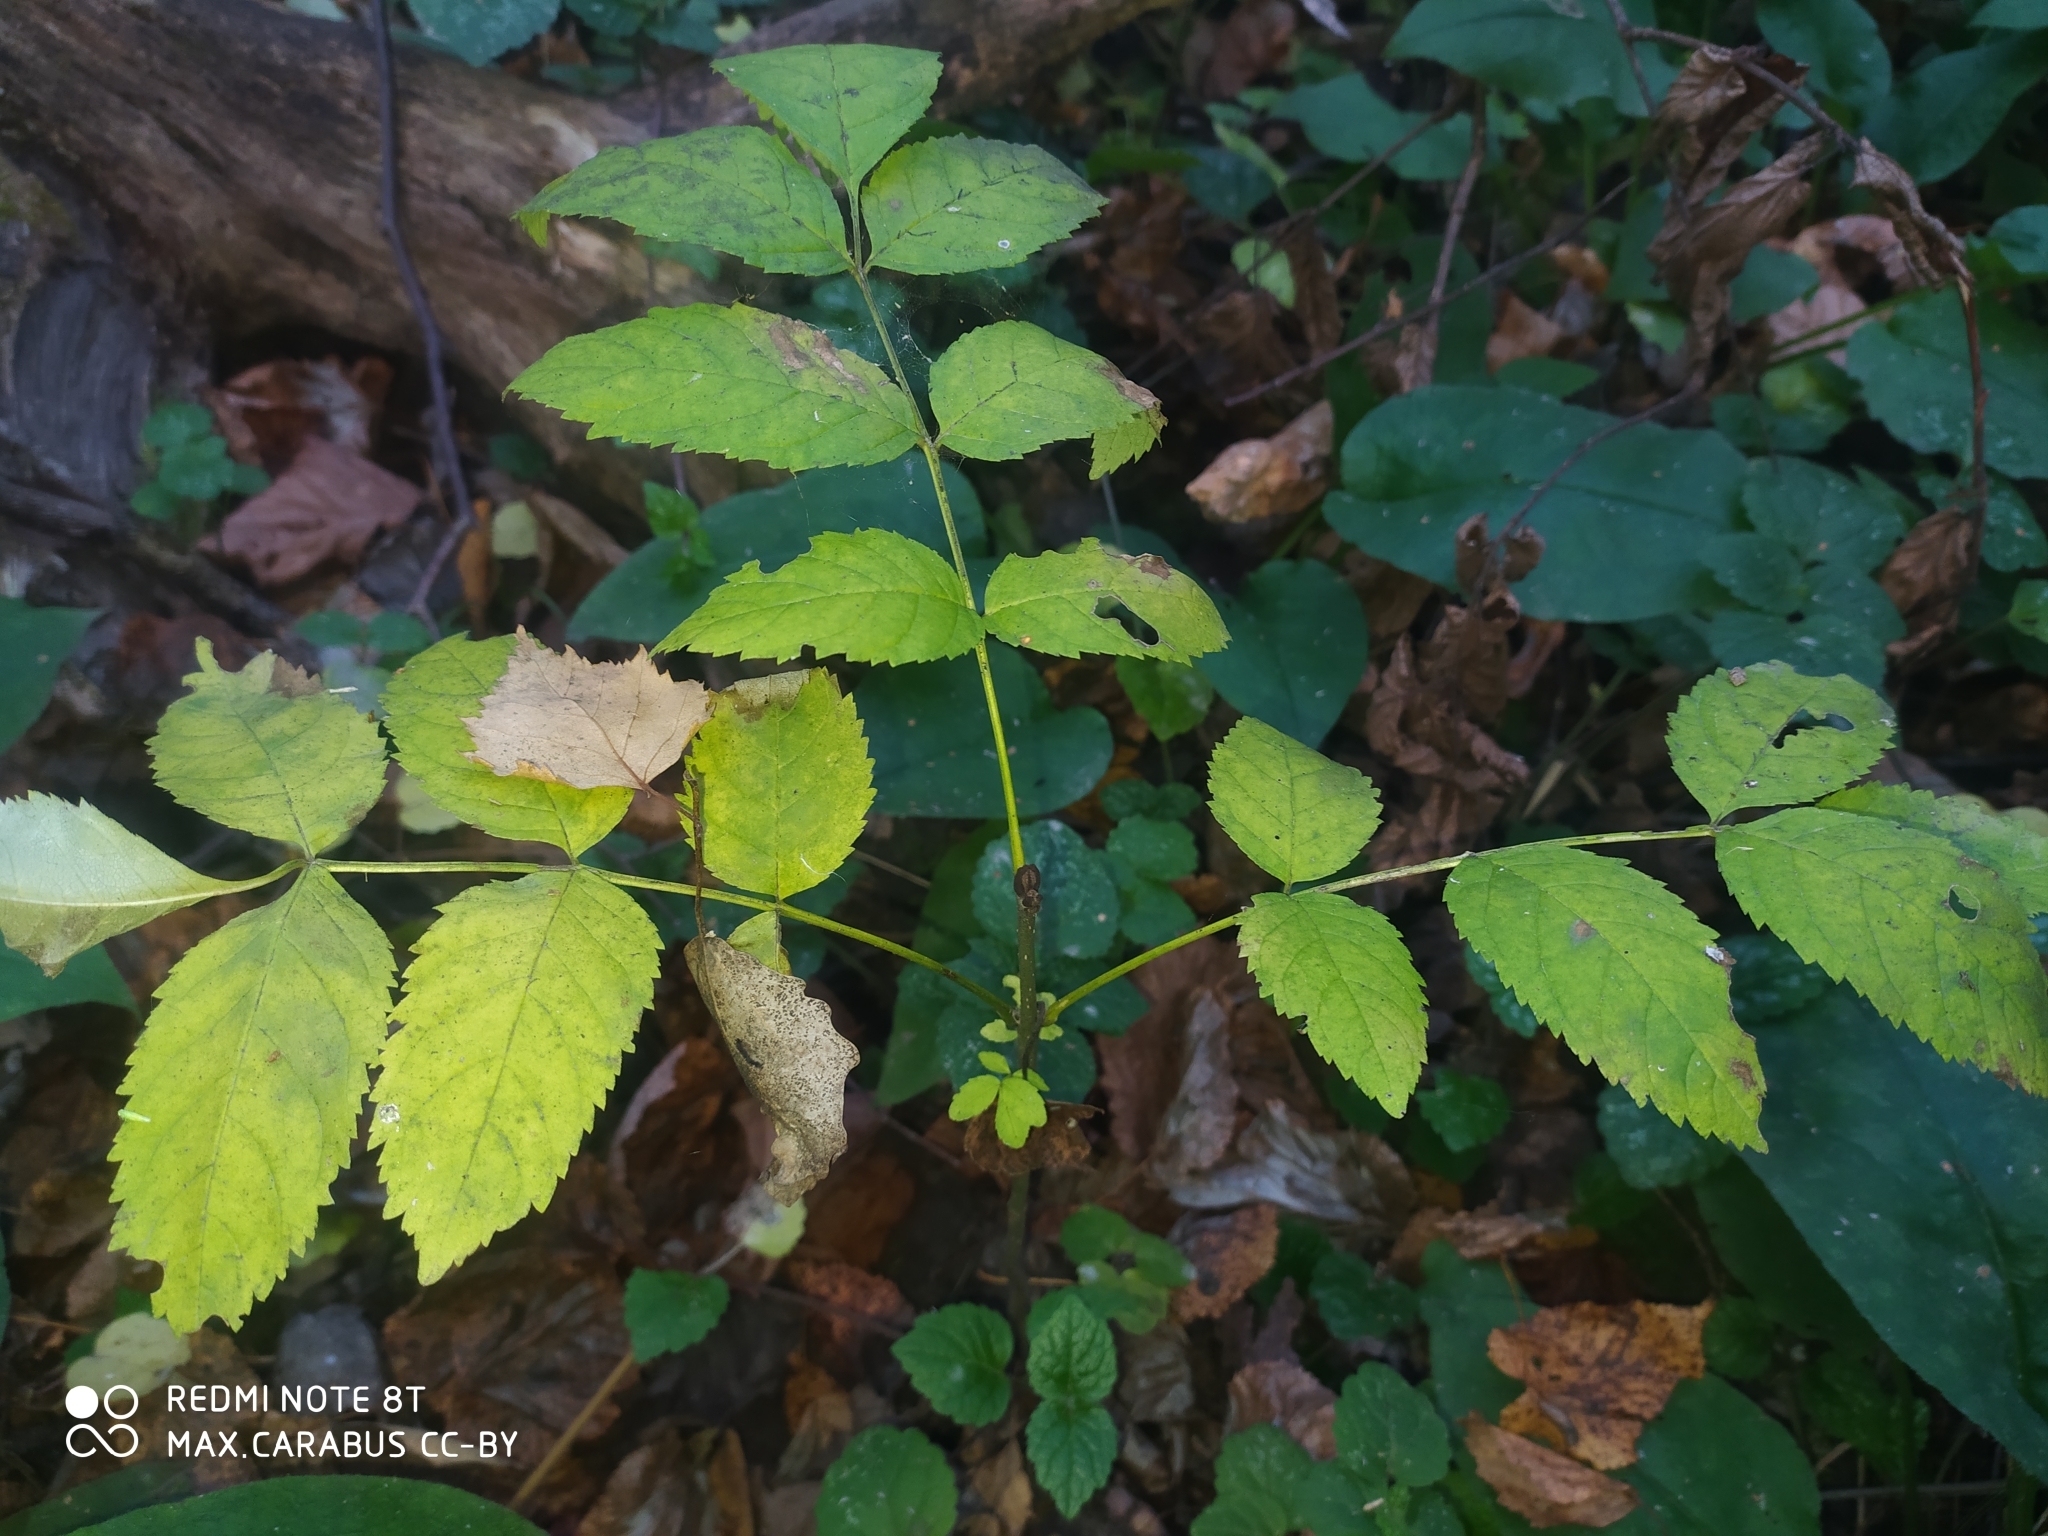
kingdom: Plantae
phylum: Tracheophyta
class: Magnoliopsida
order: Lamiales
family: Oleaceae
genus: Fraxinus
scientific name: Fraxinus excelsior
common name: European ash
